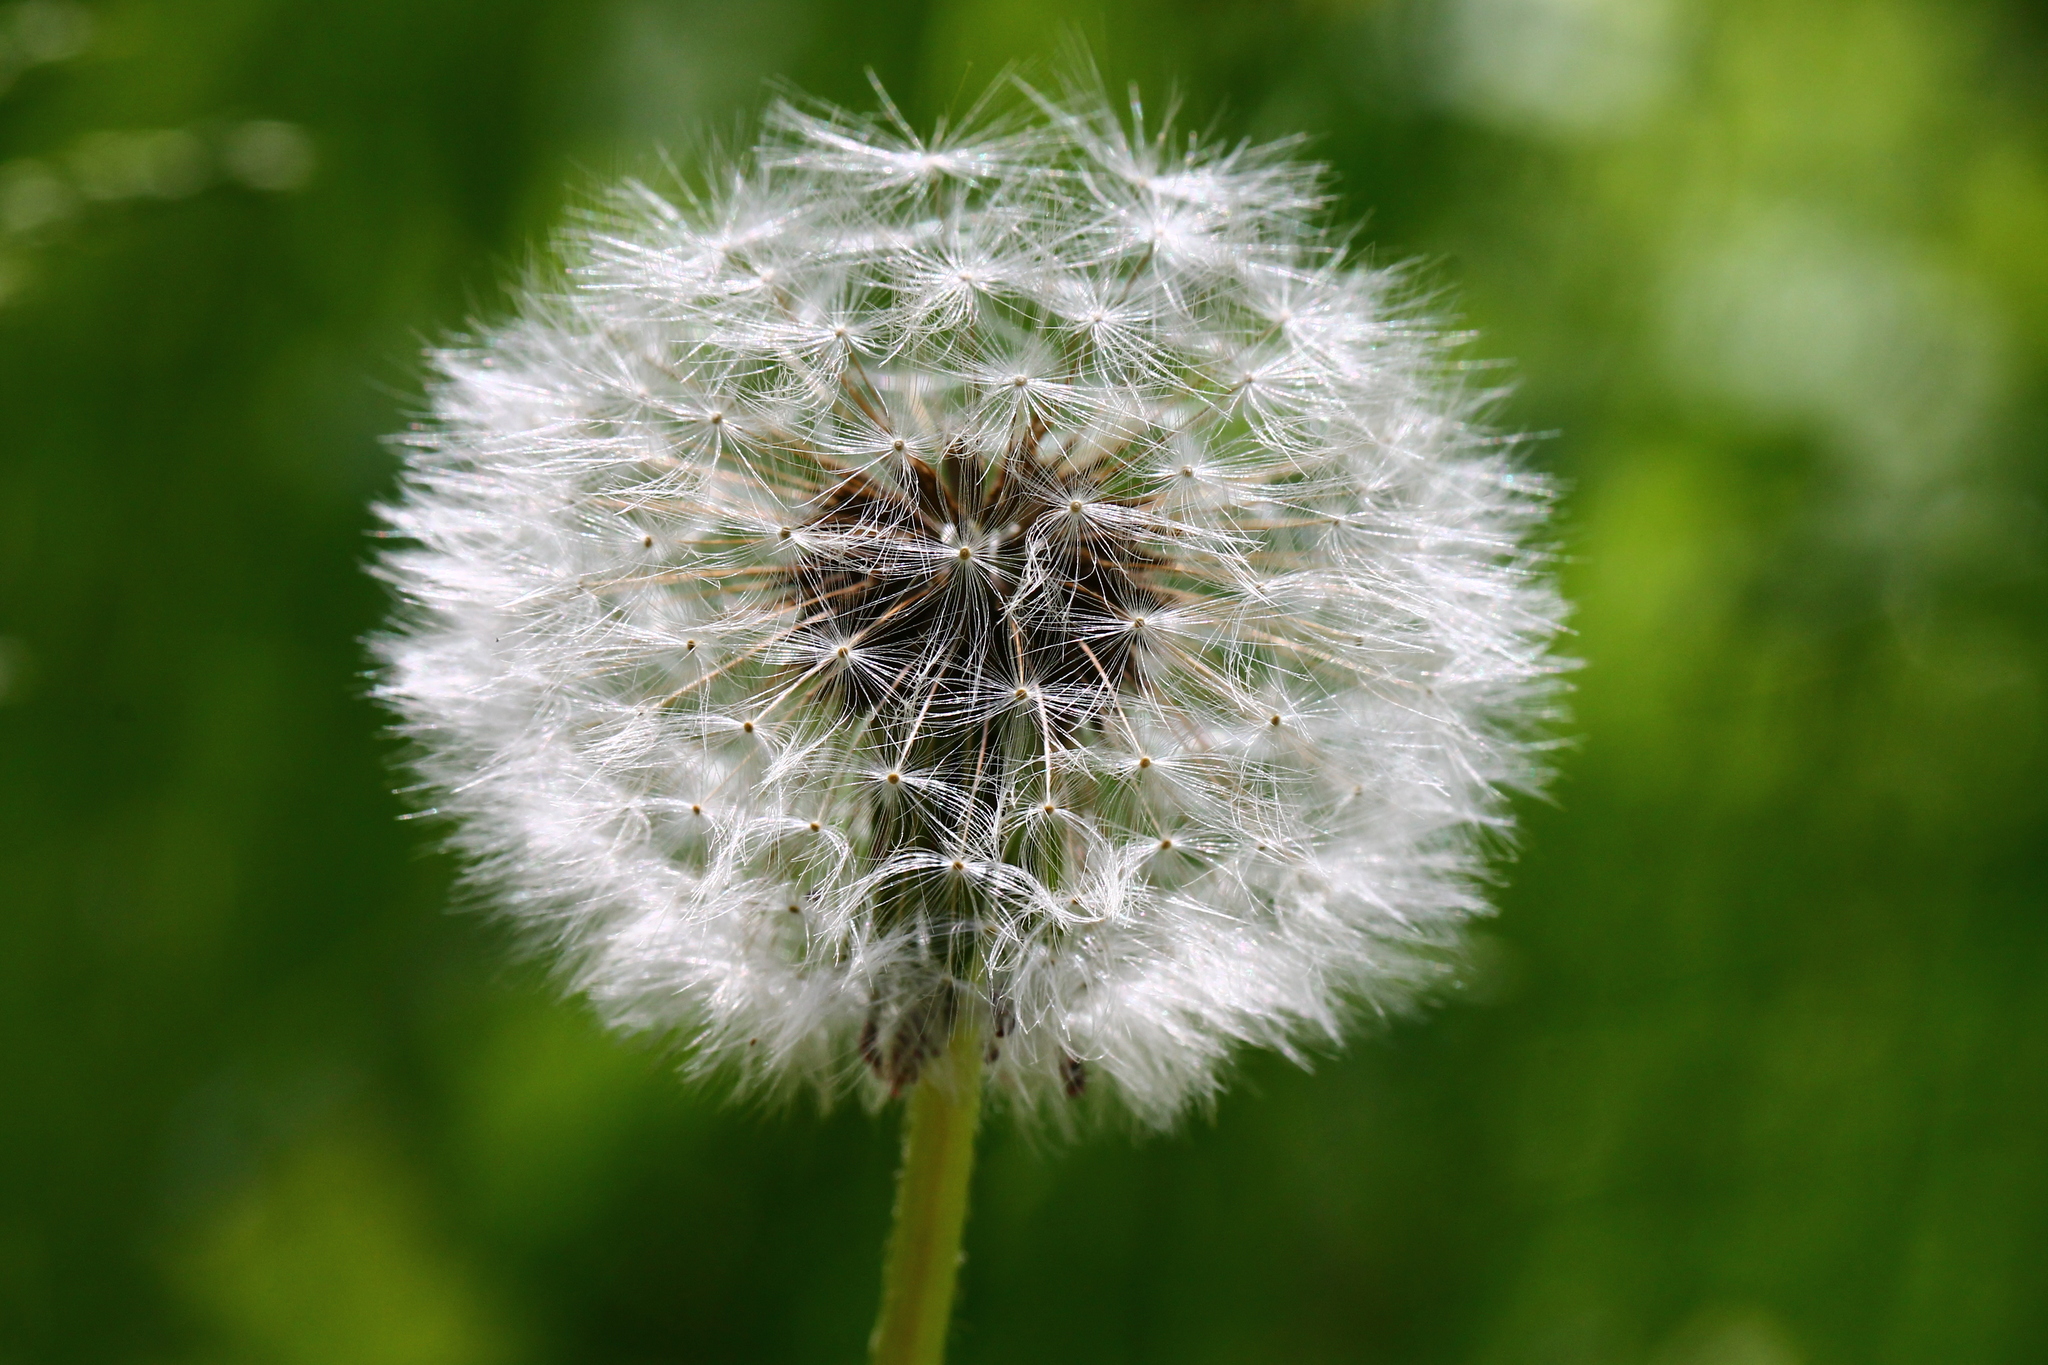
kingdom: Plantae
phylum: Tracheophyta
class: Magnoliopsida
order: Asterales
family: Asteraceae
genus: Taraxacum
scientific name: Taraxacum officinale
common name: Common dandelion
